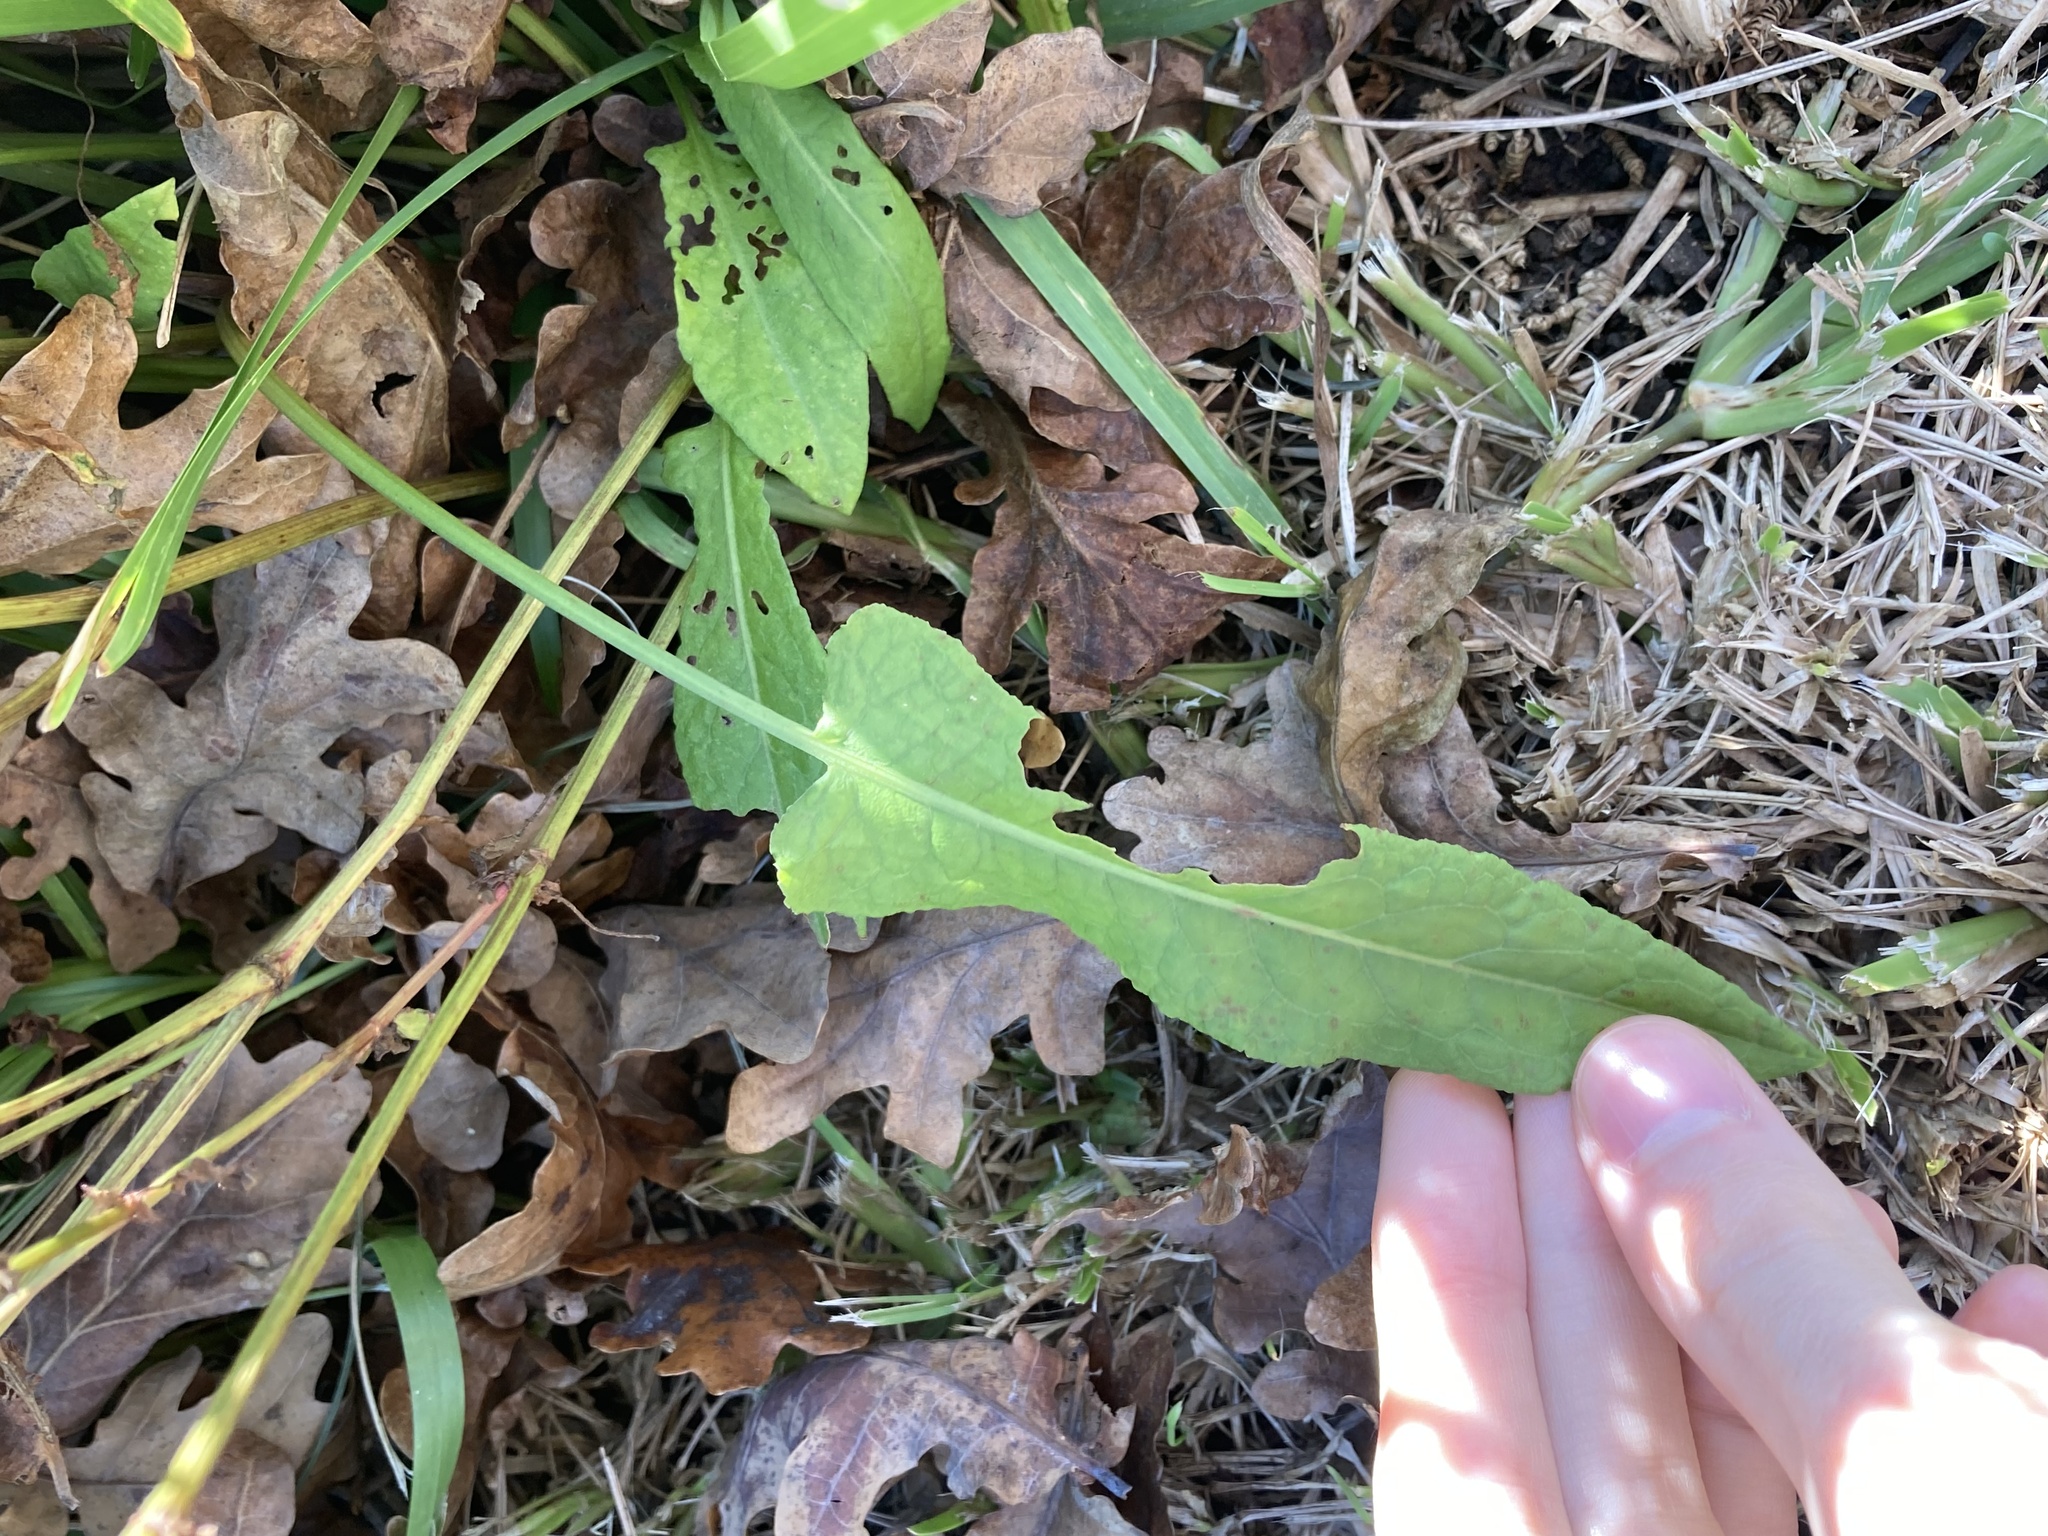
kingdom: Plantae
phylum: Tracheophyta
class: Magnoliopsida
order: Caryophyllales
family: Polygonaceae
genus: Rumex
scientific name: Rumex brownii
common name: Hooked dock
